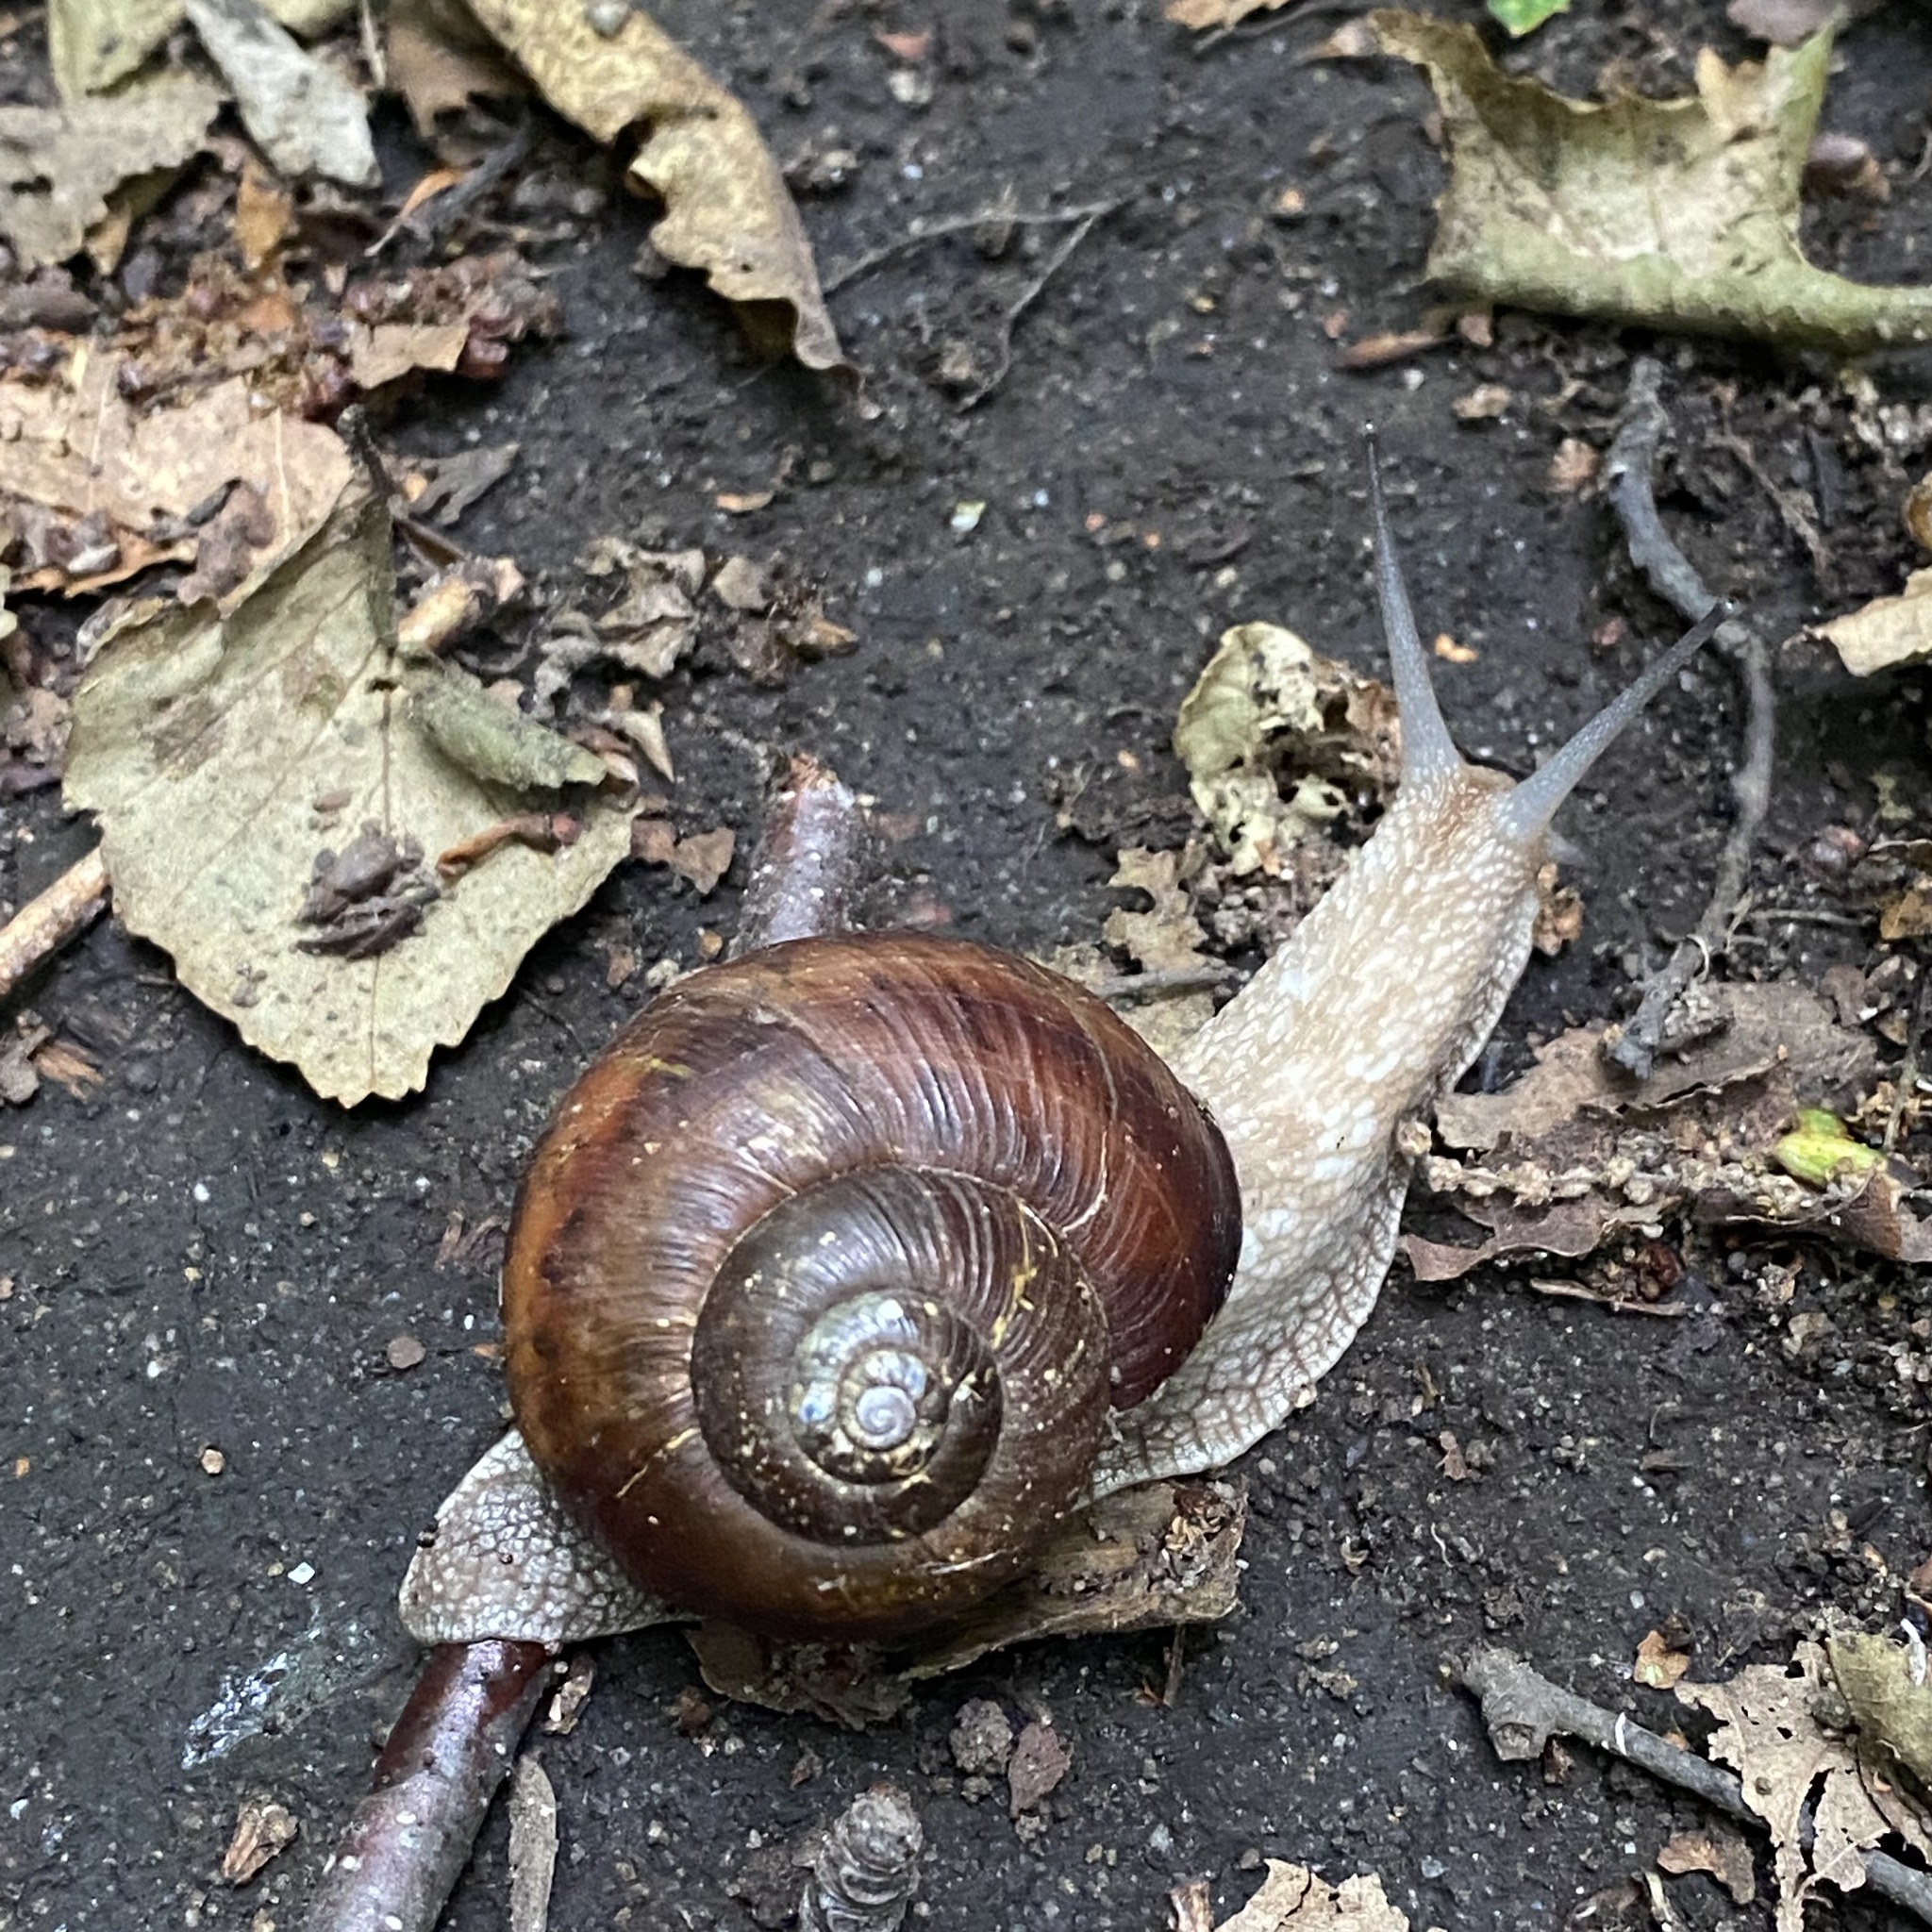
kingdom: Animalia
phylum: Mollusca
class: Gastropoda
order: Stylommatophora
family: Camaenidae
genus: Karaftohelix
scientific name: Karaftohelix gainesi
